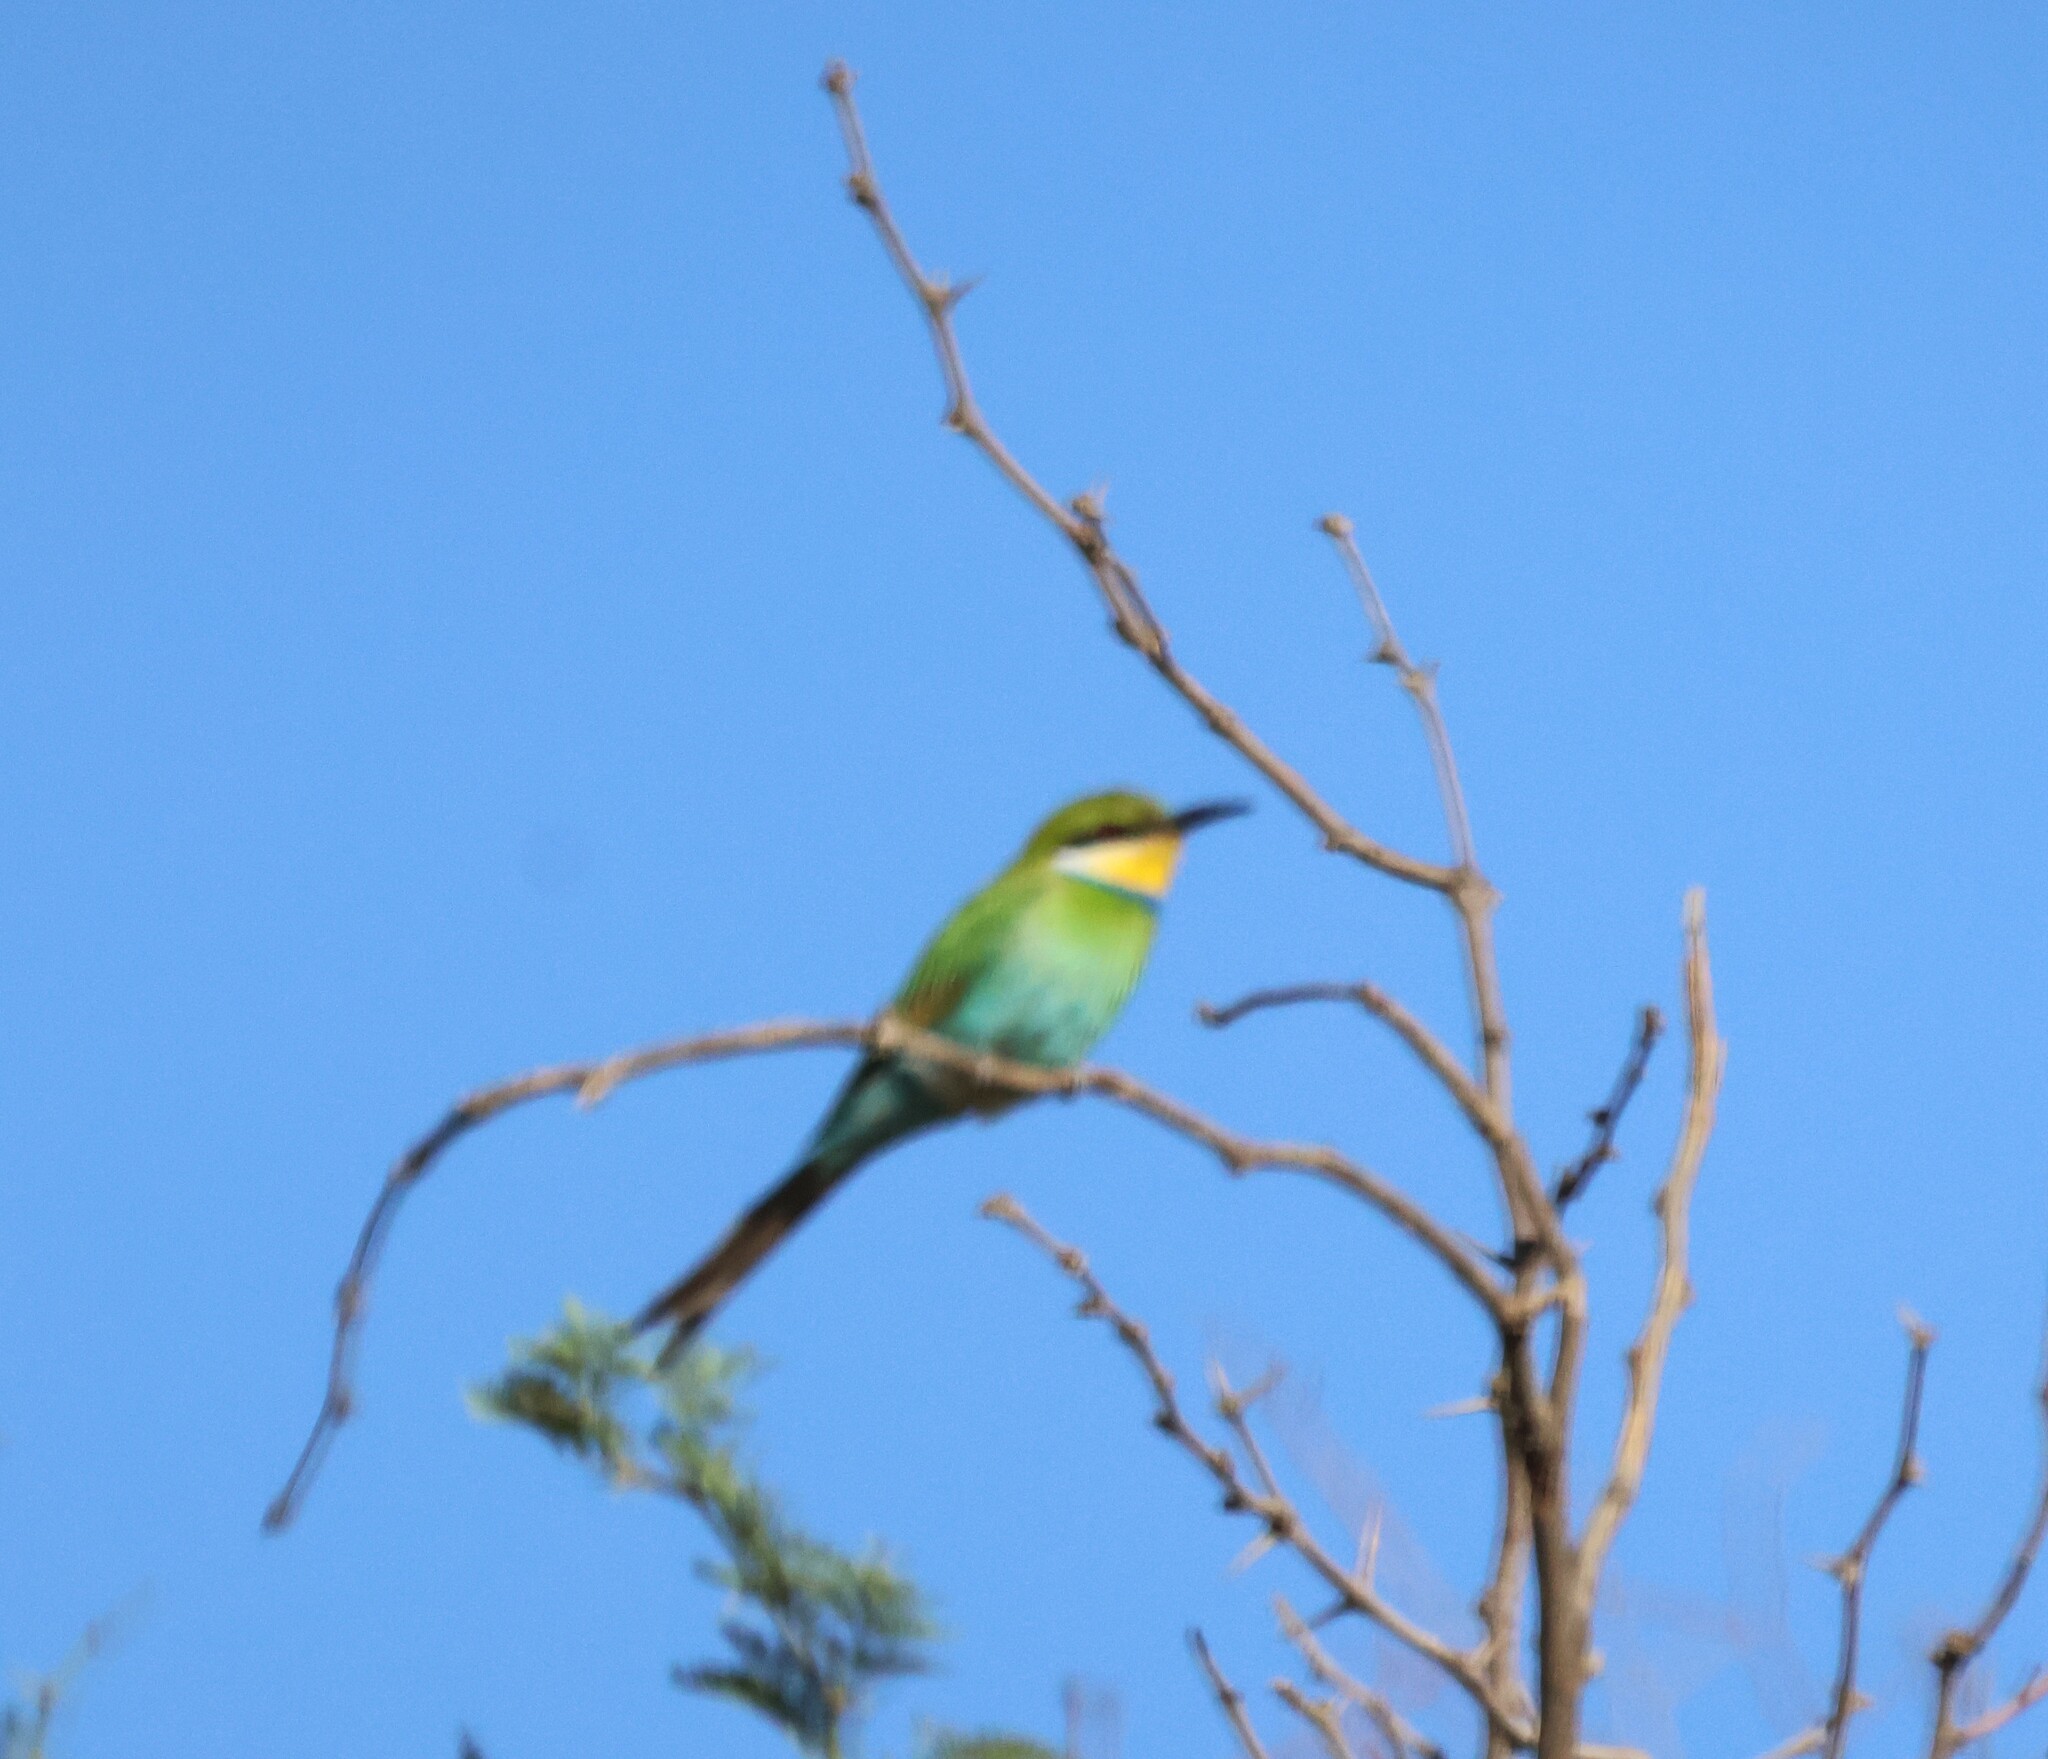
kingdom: Animalia
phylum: Chordata
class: Aves
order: Coraciiformes
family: Meropidae
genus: Merops
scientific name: Merops hirundineus
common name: Swallow-tailed bee-eater
